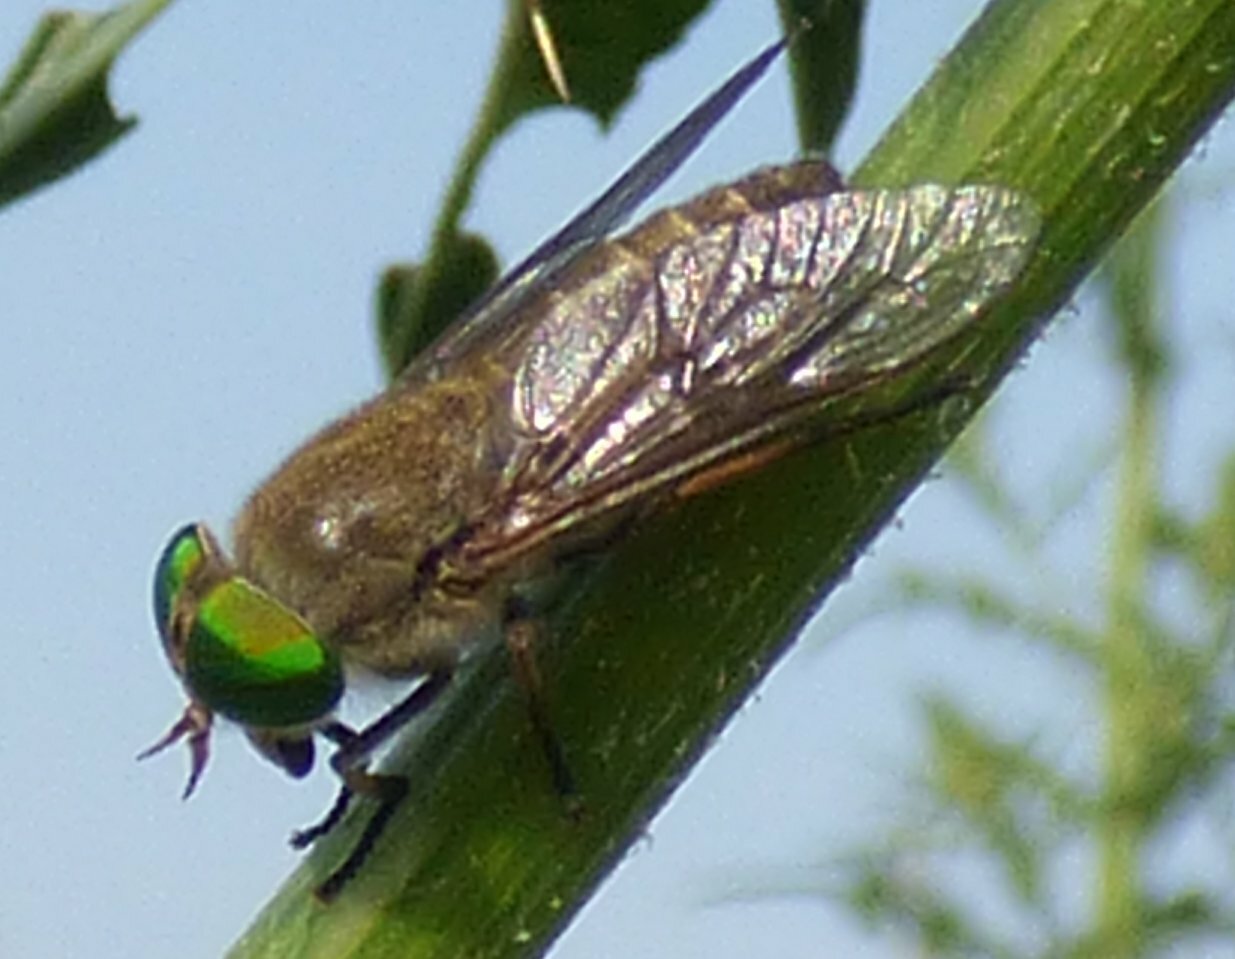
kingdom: Animalia
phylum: Arthropoda
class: Insecta
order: Diptera
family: Tabanidae
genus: Tabanus
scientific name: Tabanus fulvulus
